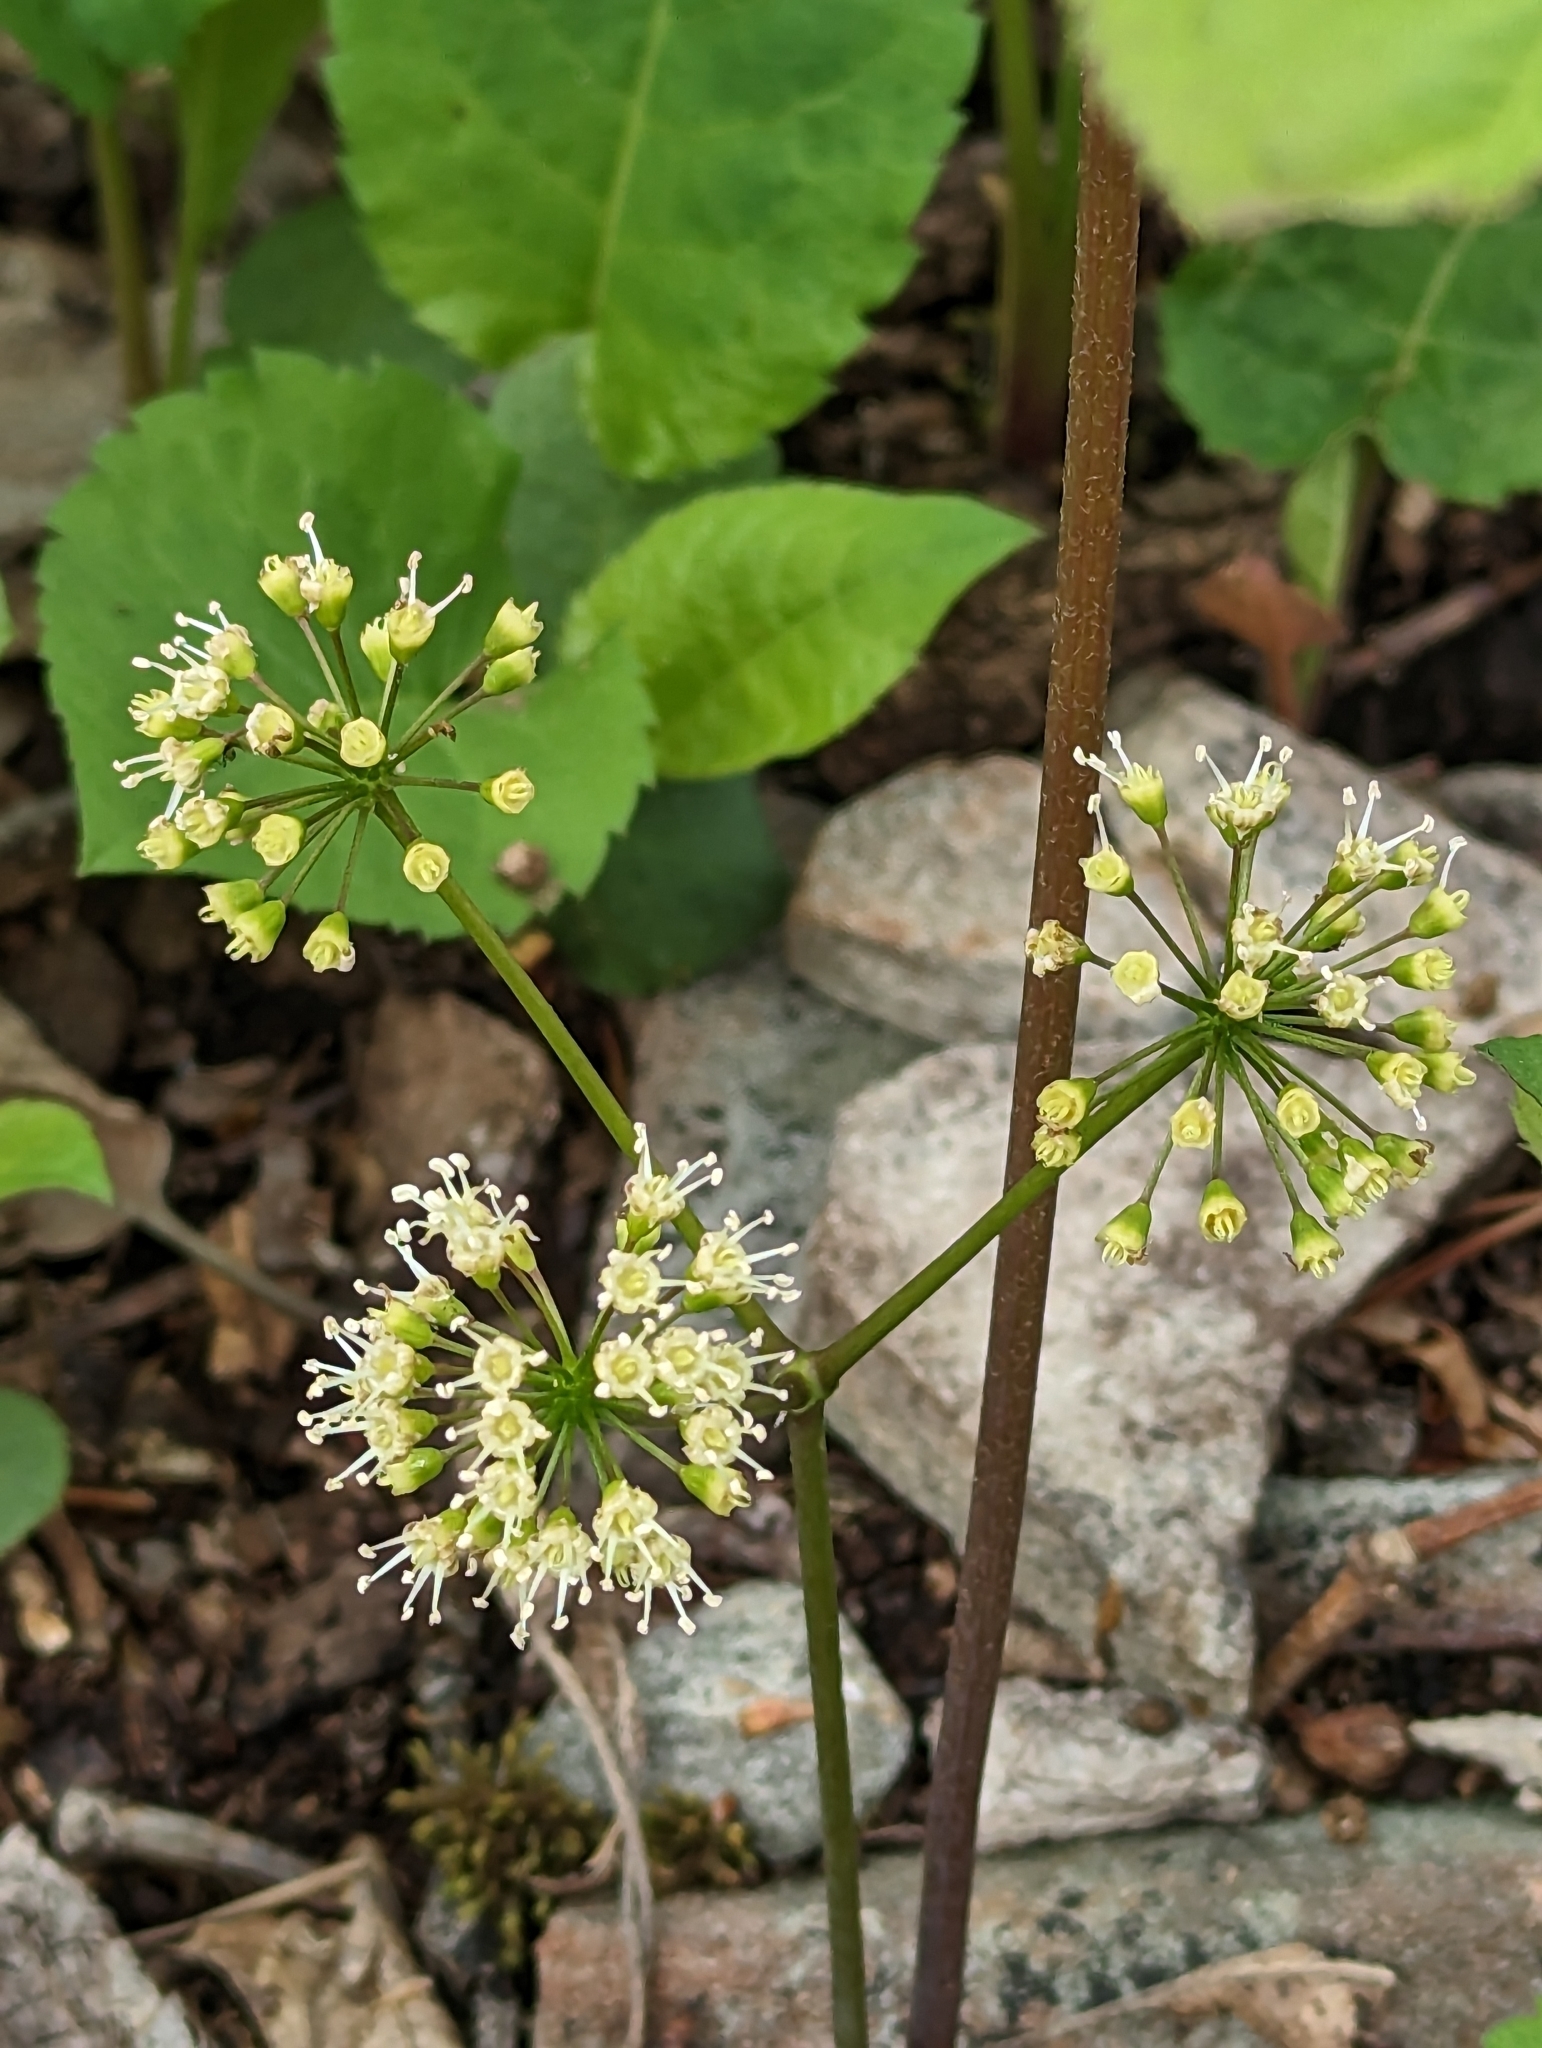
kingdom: Plantae
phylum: Tracheophyta
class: Magnoliopsida
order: Apiales
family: Araliaceae
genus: Aralia
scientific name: Aralia nudicaulis
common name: Wild sarsaparilla
